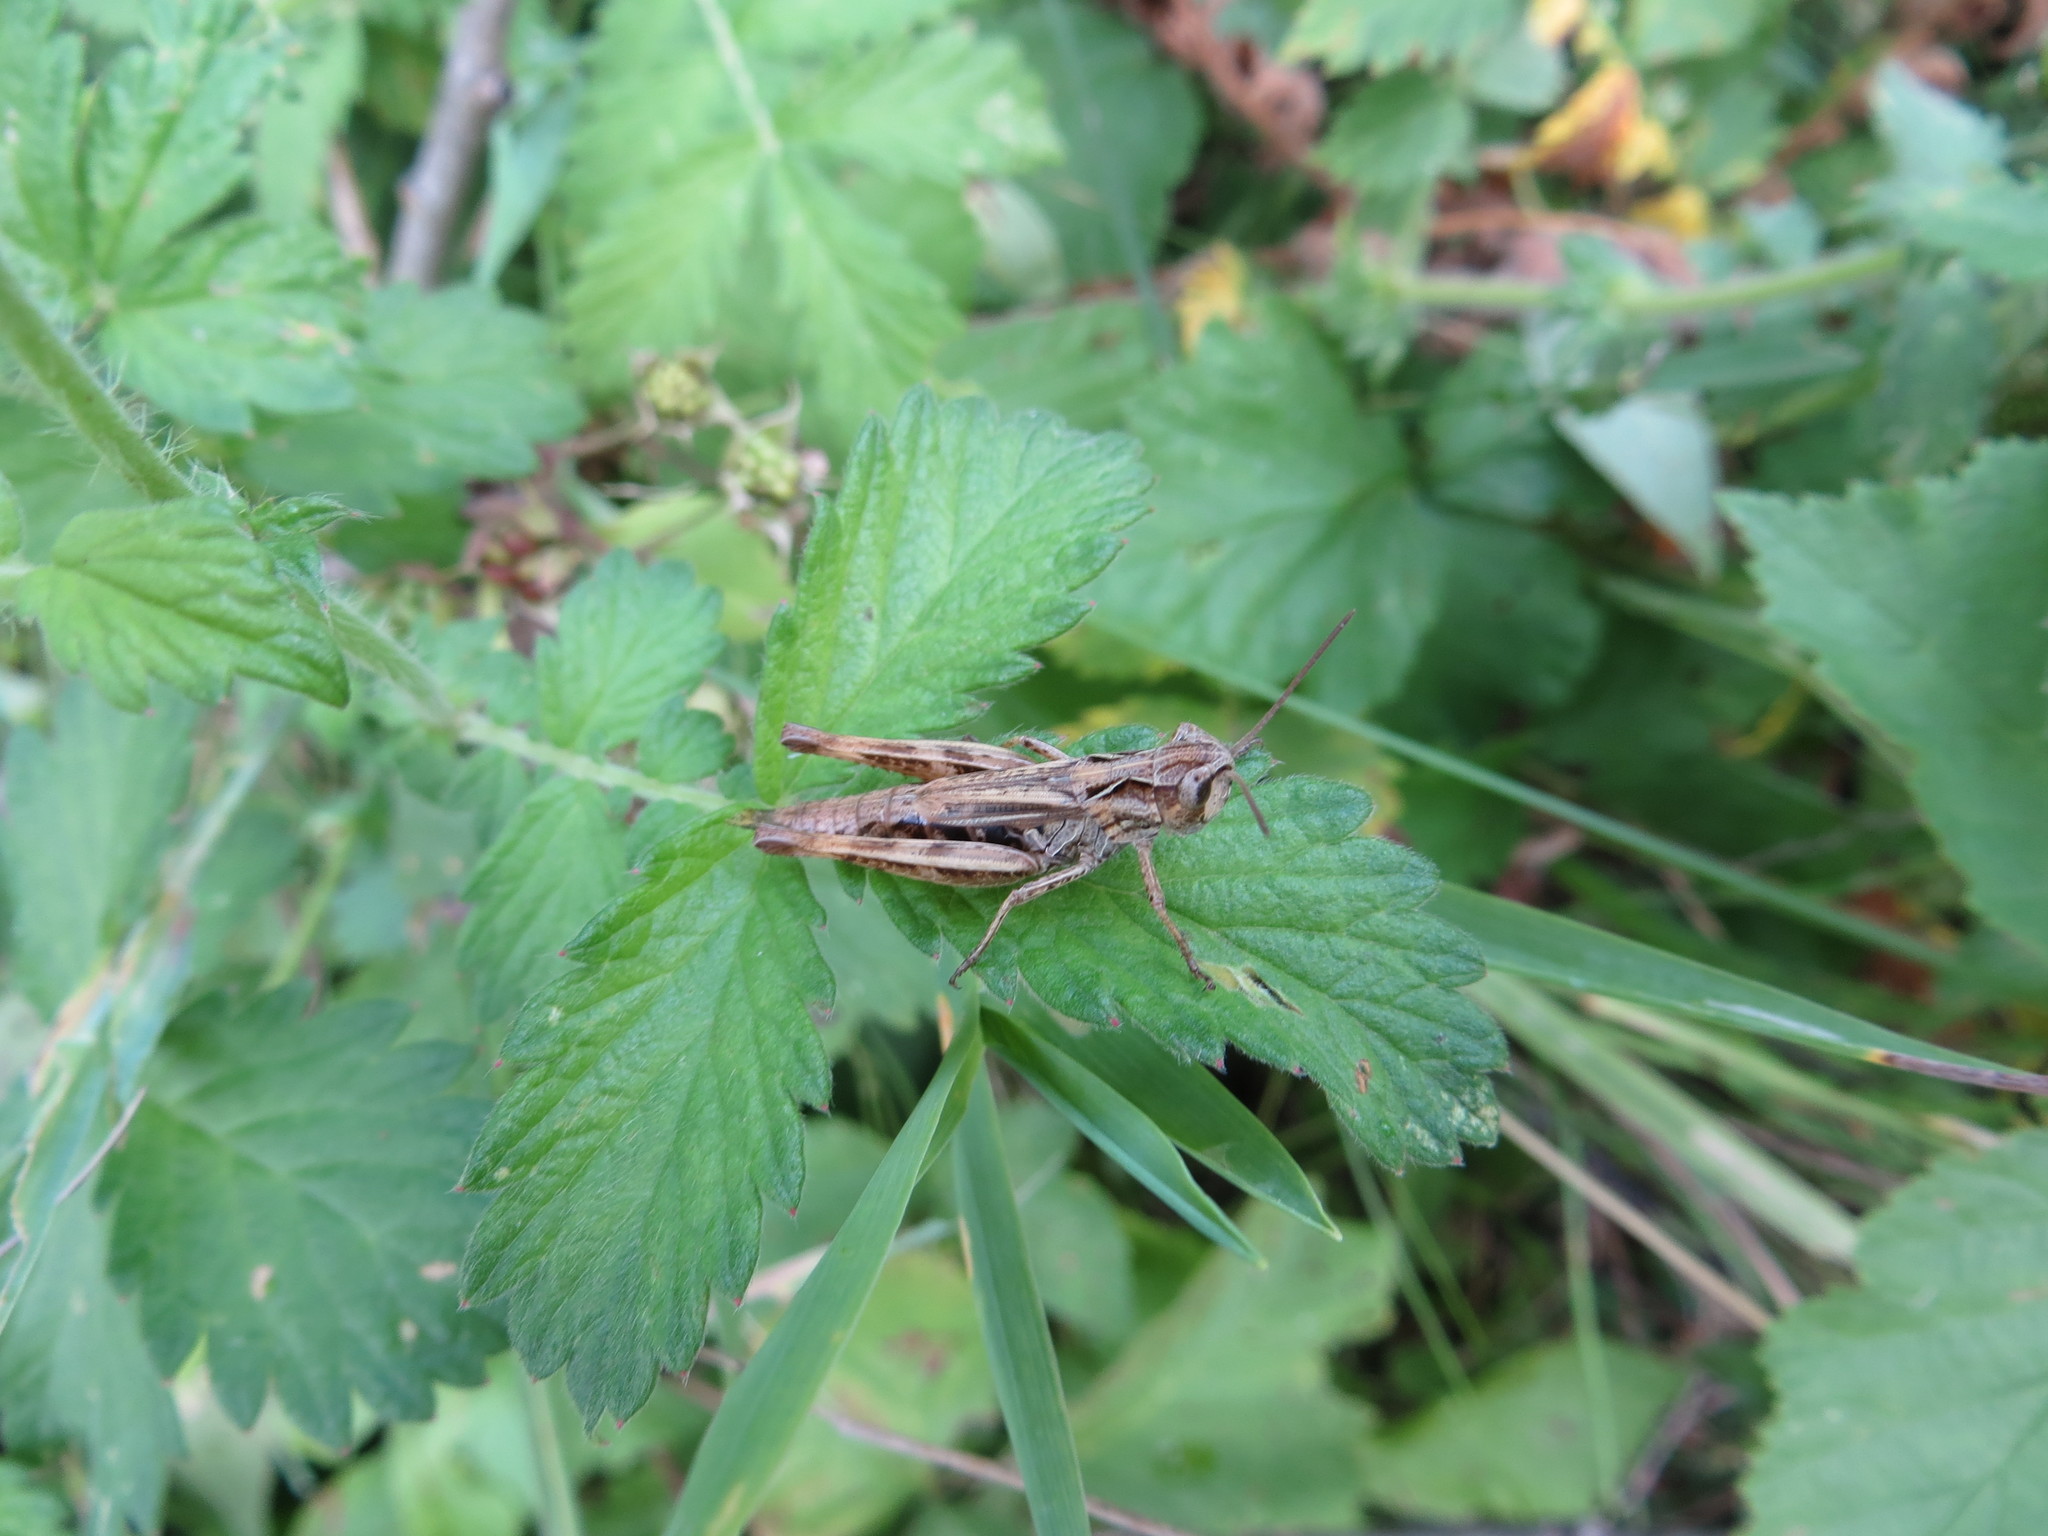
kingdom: Animalia
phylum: Arthropoda
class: Insecta
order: Orthoptera
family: Acrididae
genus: Chorthippus
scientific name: Chorthippus macrocerus
